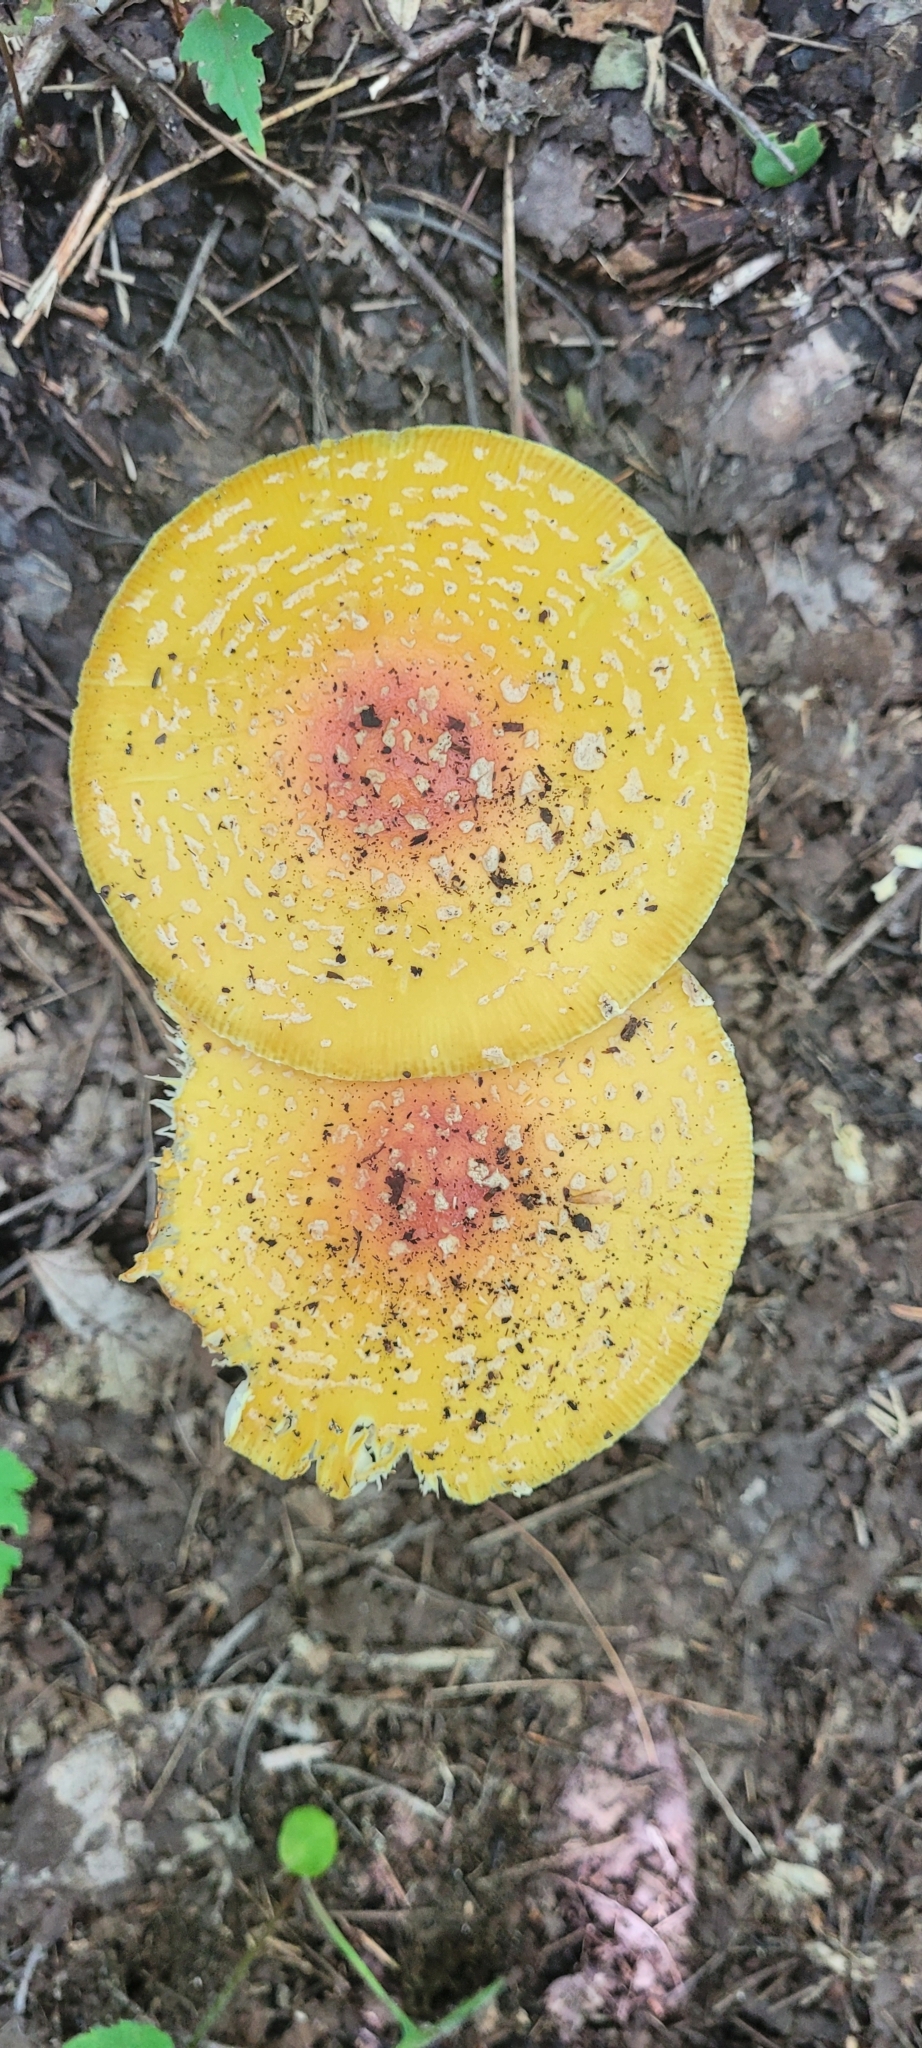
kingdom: Fungi
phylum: Basidiomycota
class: Agaricomycetes
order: Agaricales
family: Amanitaceae
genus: Amanita
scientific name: Amanita muscaria
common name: Fly agaric
